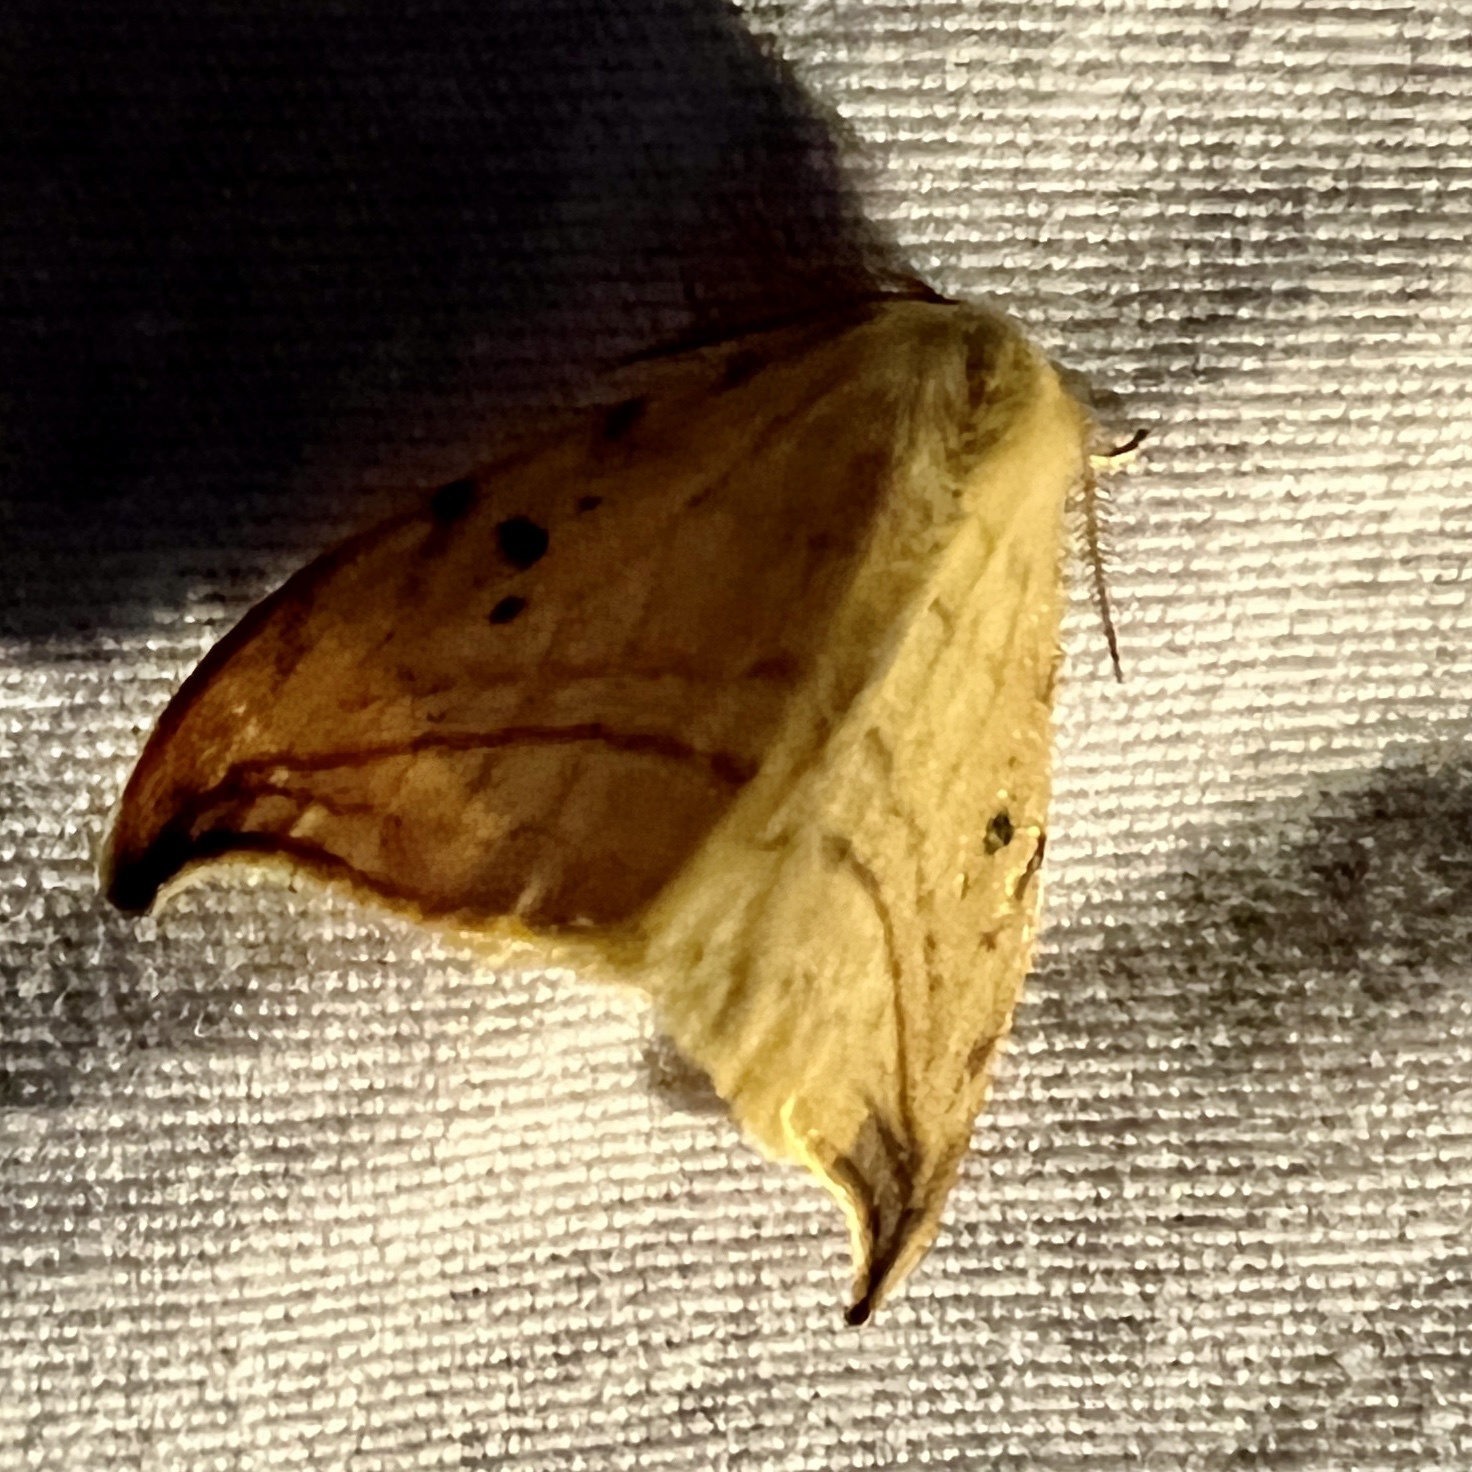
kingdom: Animalia
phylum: Arthropoda
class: Insecta
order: Lepidoptera
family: Drepanidae
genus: Drepana
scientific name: Drepana arcuata
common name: Arched hooktip moth
